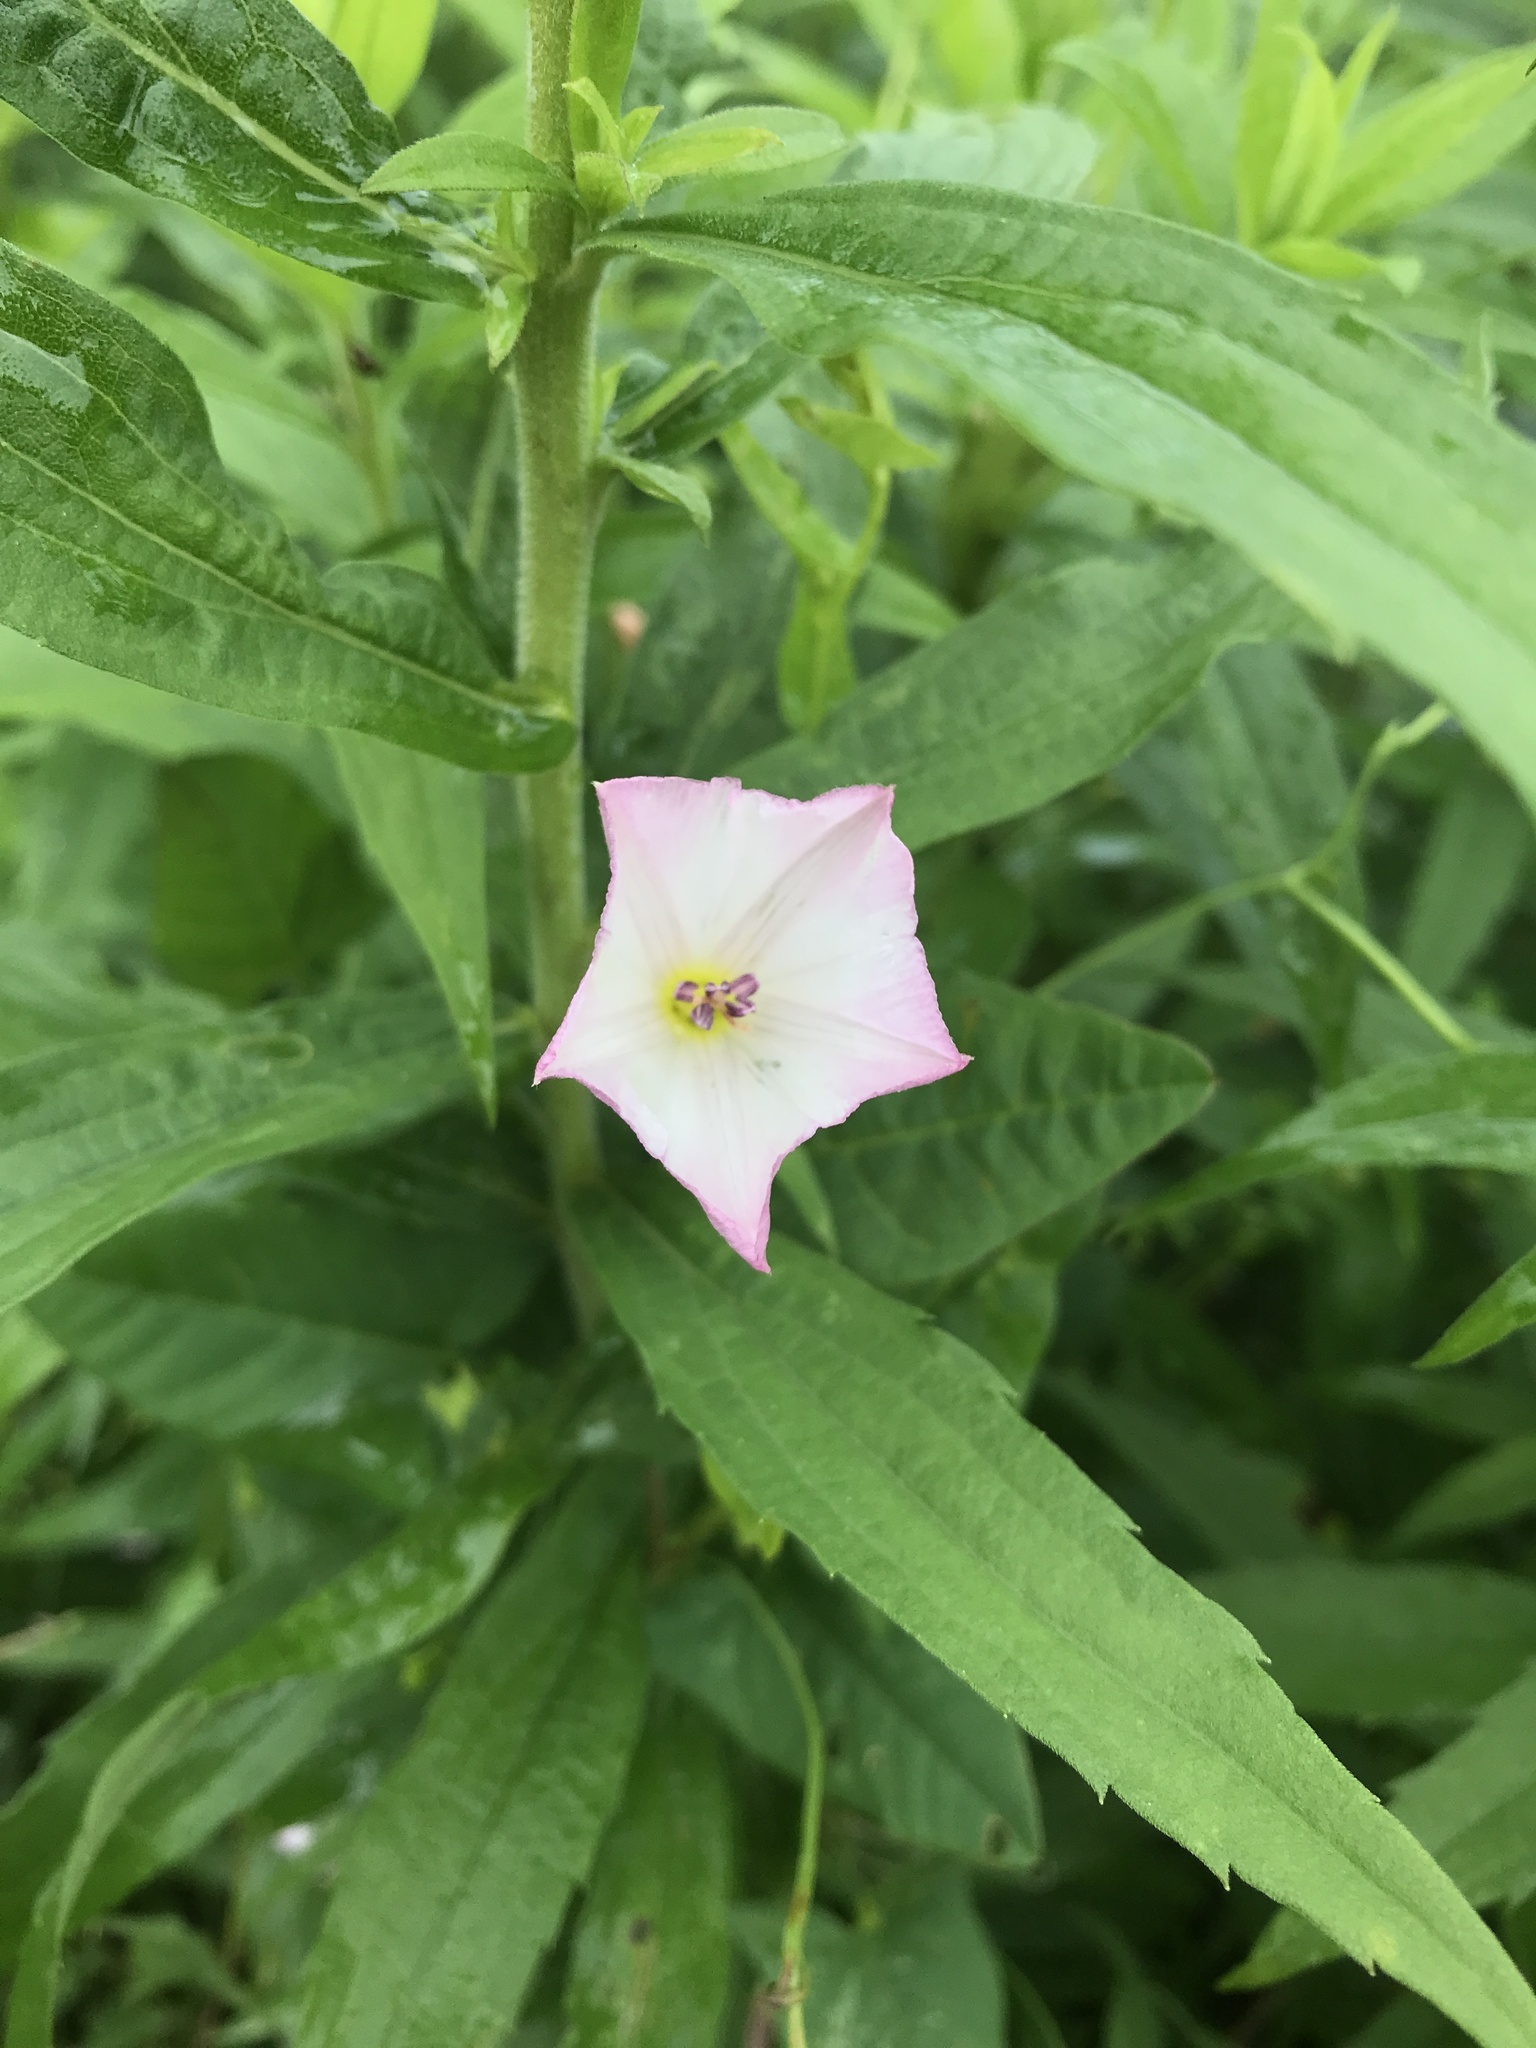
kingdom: Plantae
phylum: Tracheophyta
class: Magnoliopsida
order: Solanales
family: Convolvulaceae
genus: Convolvulus
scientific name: Convolvulus arvensis
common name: Field bindweed
